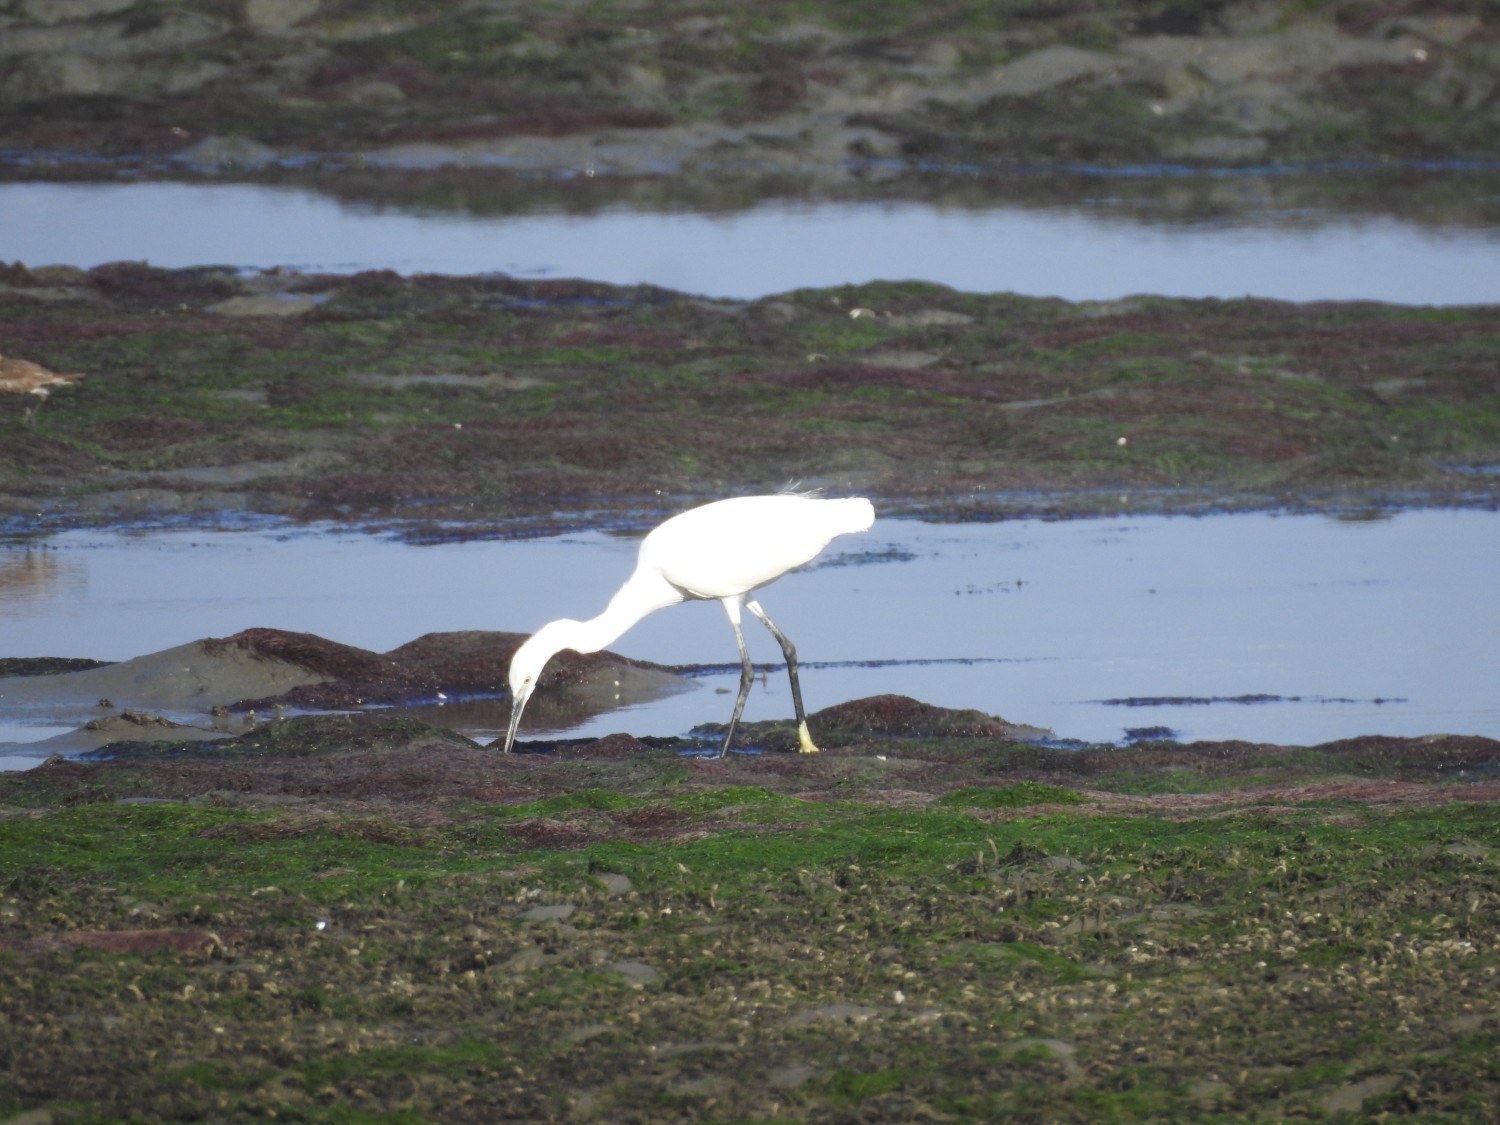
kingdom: Animalia
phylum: Chordata
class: Aves
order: Pelecaniformes
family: Ardeidae
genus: Egretta
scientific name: Egretta gularis
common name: Western reef-heron
